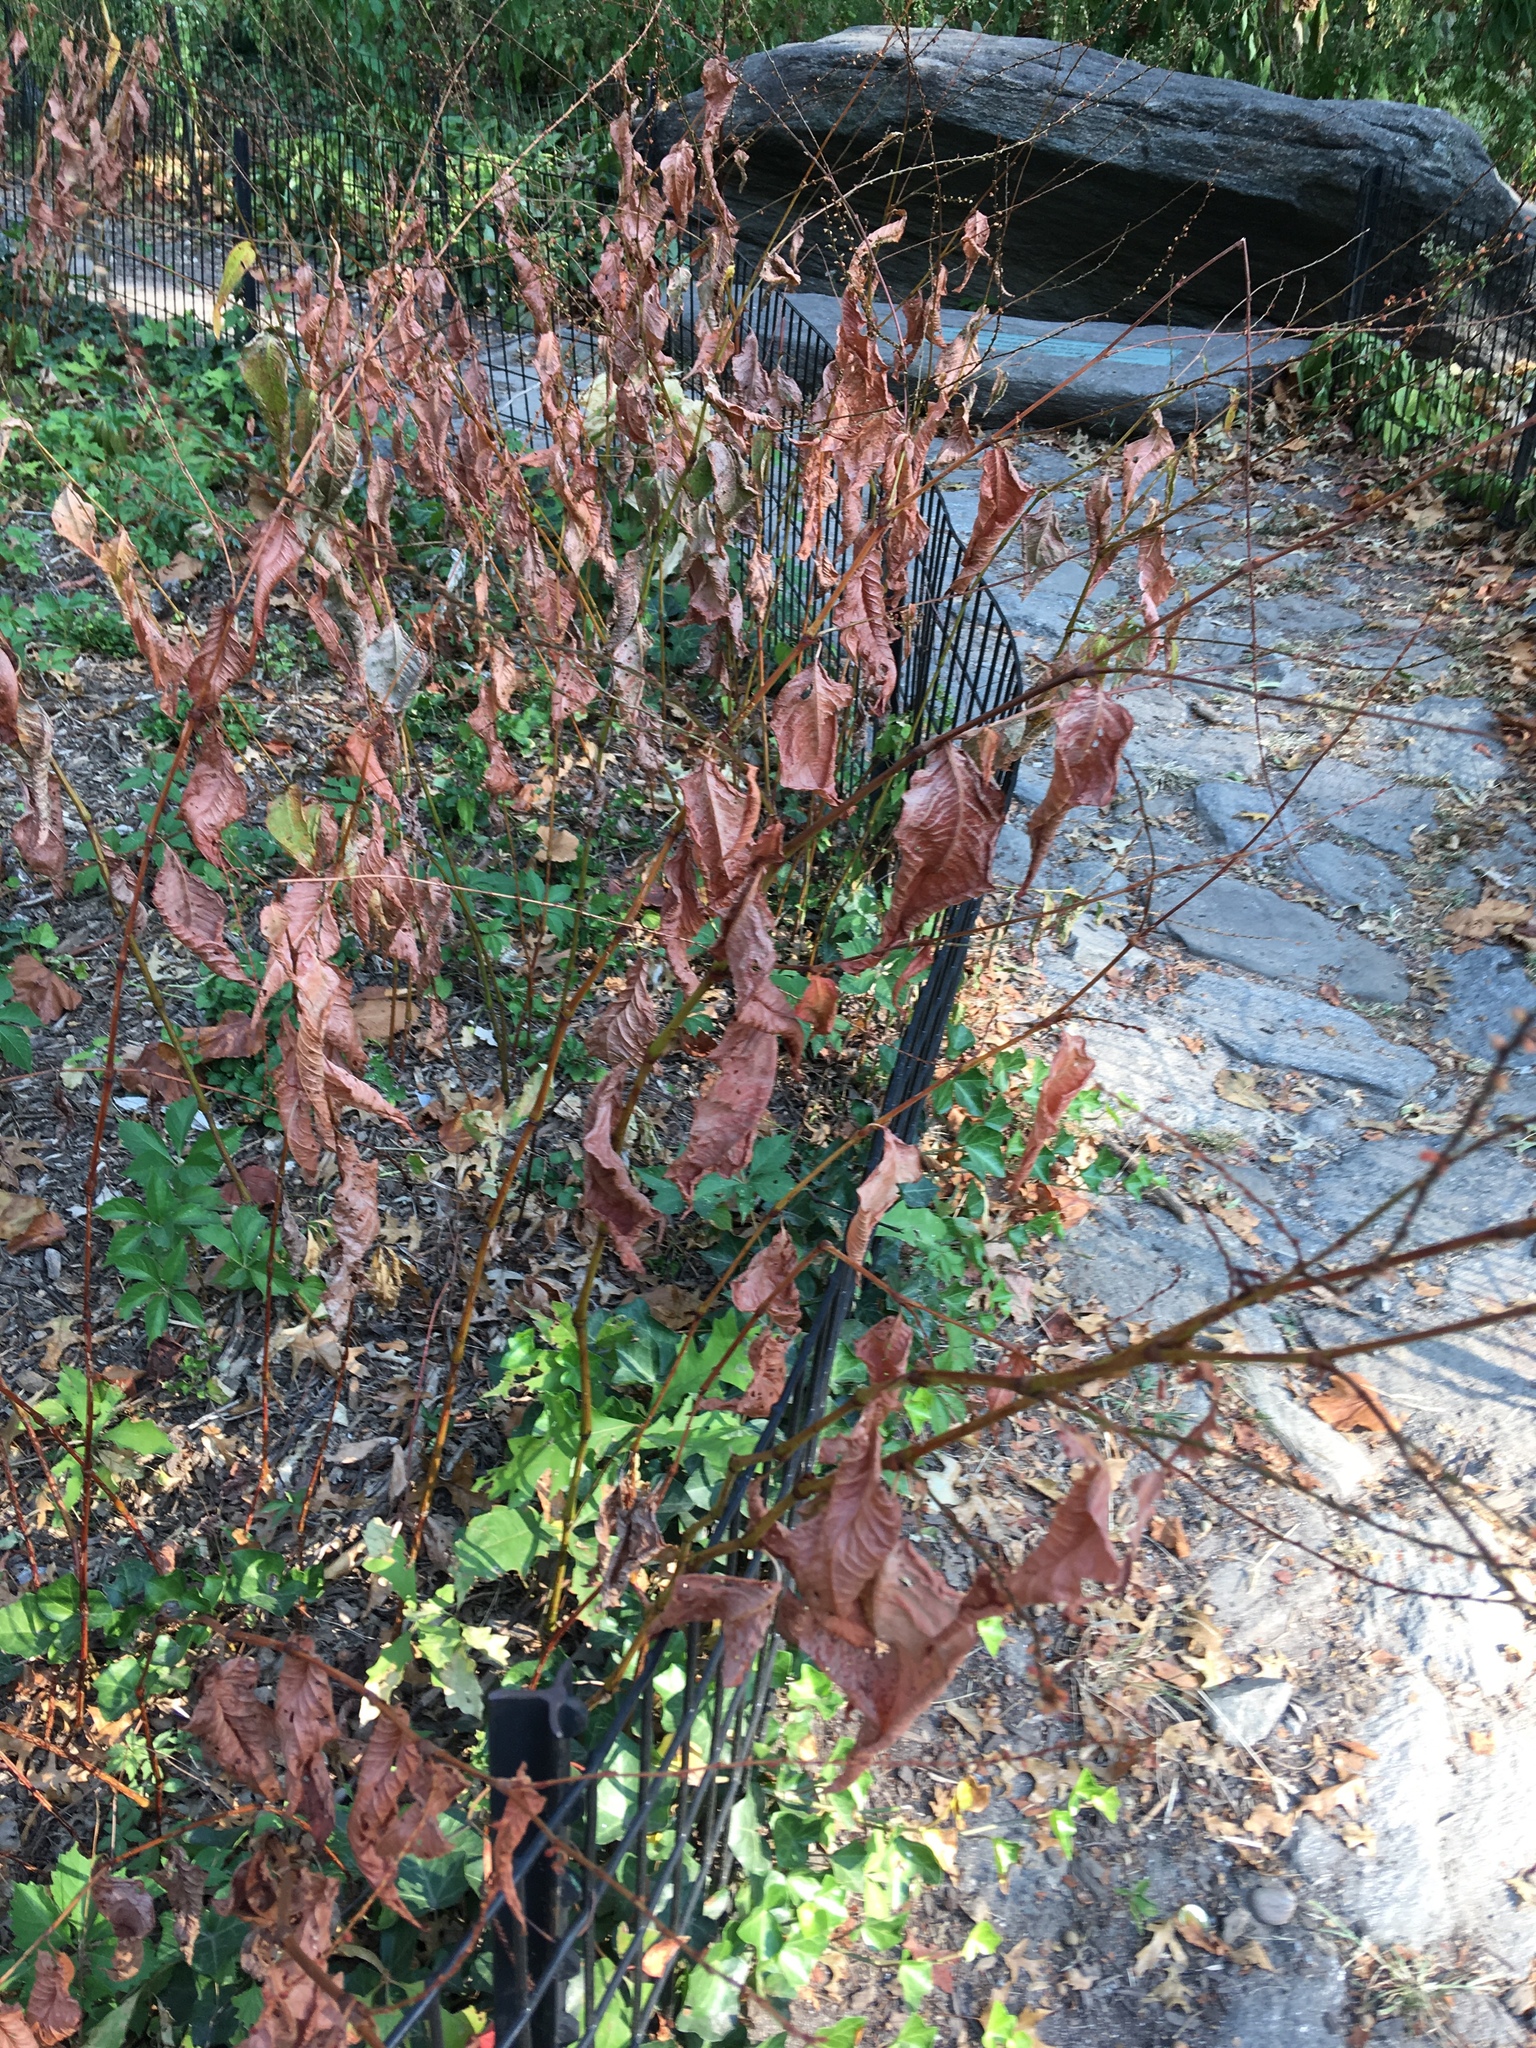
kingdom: Plantae
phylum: Tracheophyta
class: Magnoliopsida
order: Caryophyllales
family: Polygonaceae
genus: Persicaria
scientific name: Persicaria virginiana
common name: Jumpseed
